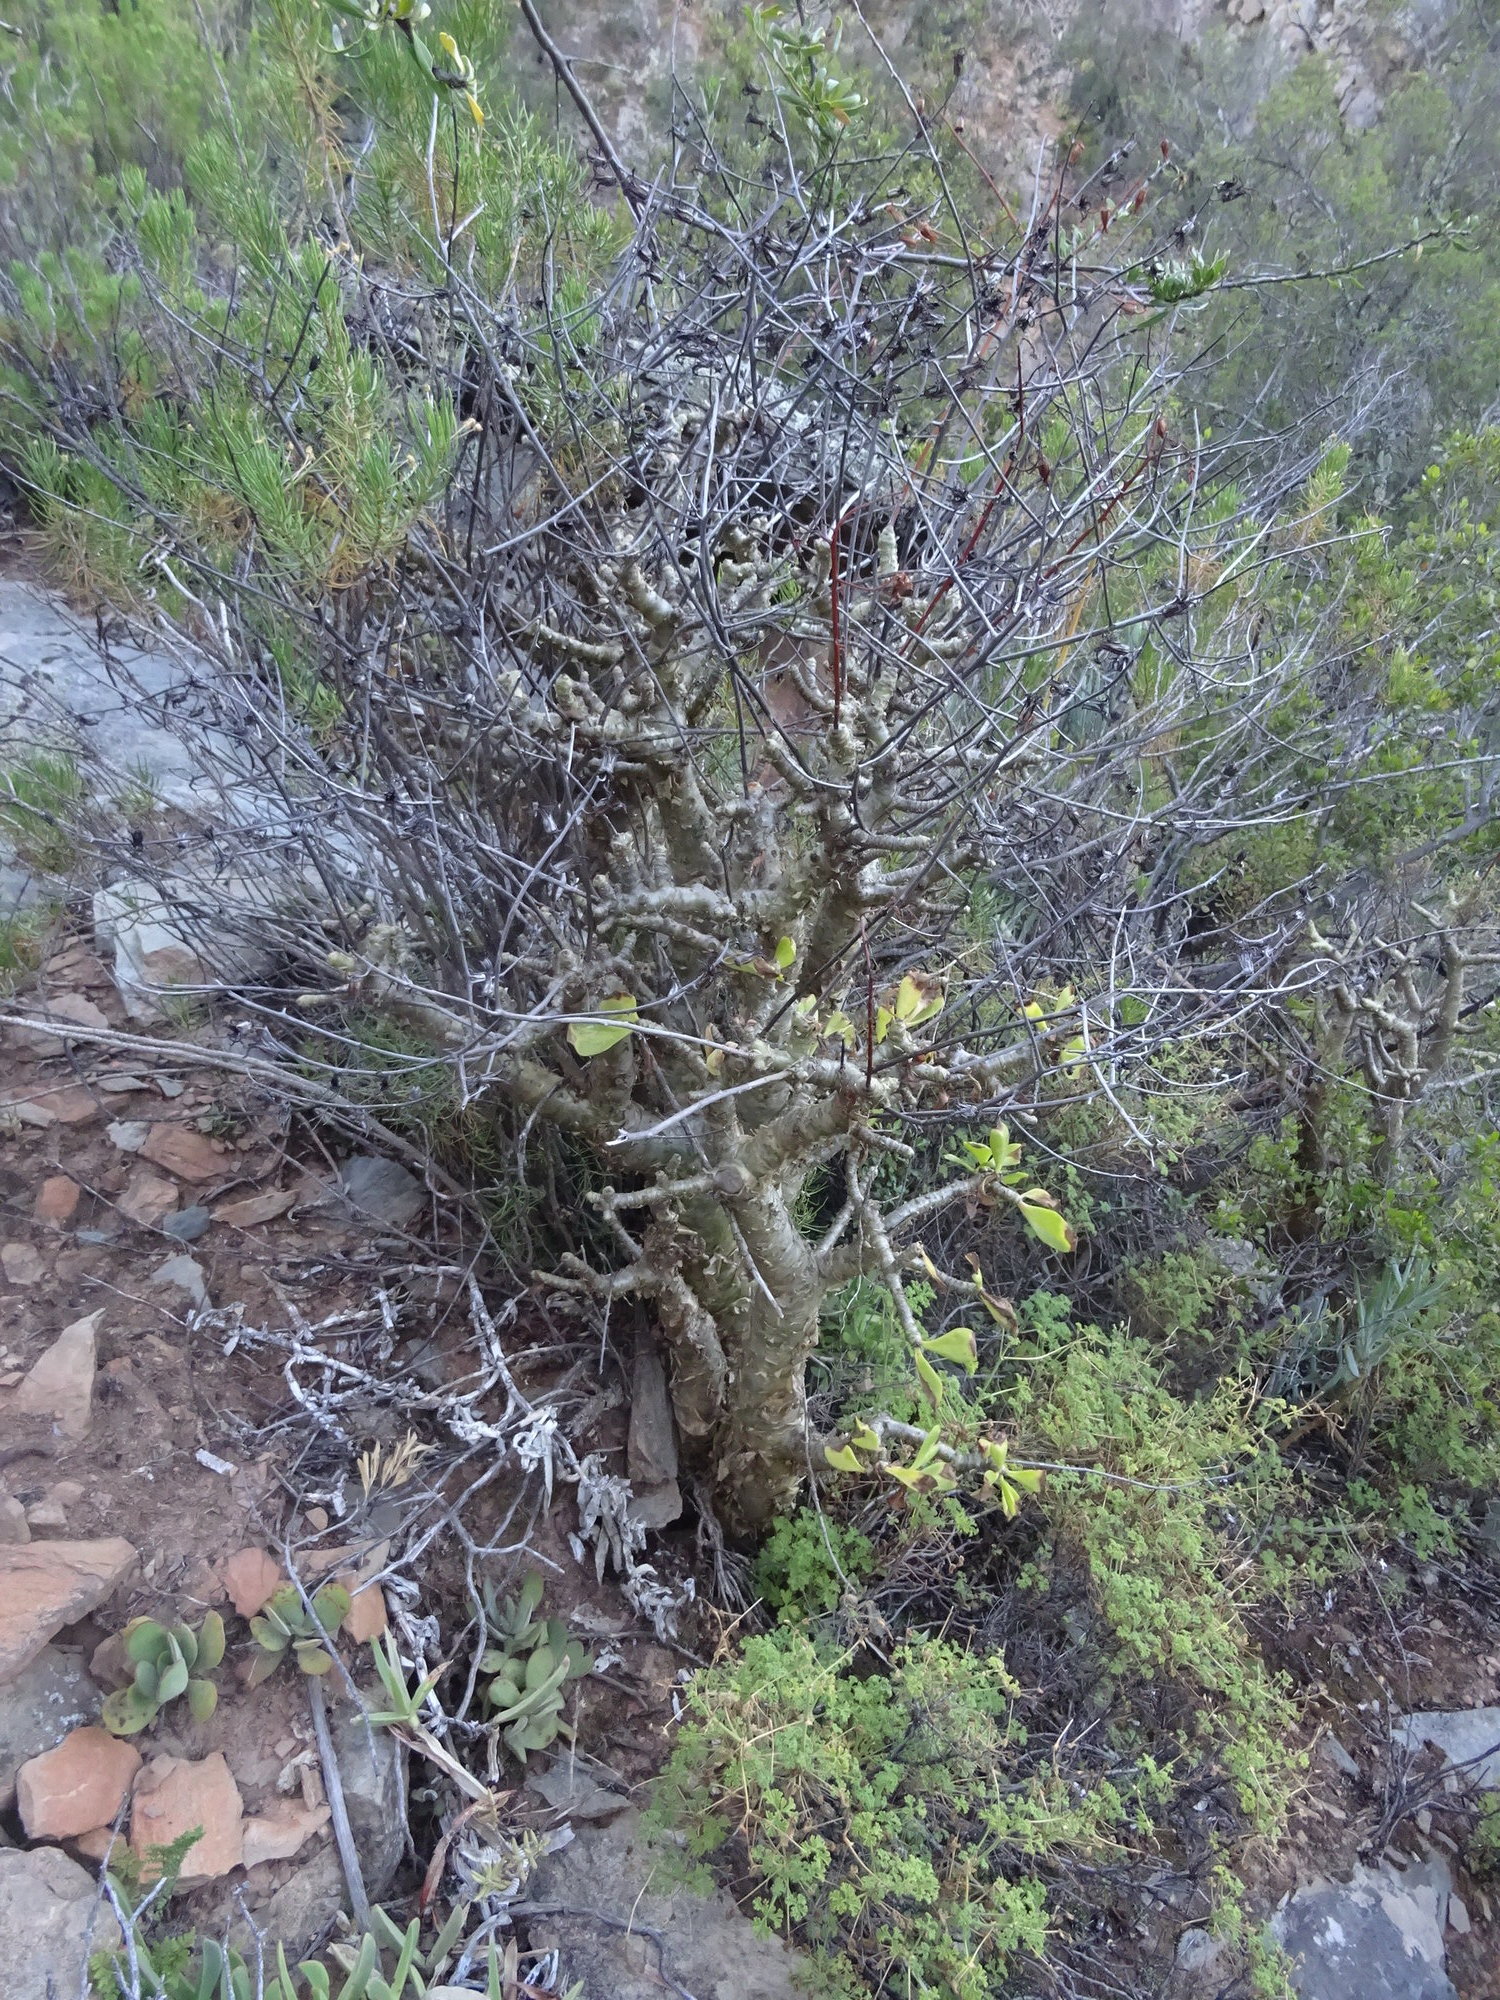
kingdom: Plantae
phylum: Tracheophyta
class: Magnoliopsida
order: Saxifragales
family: Crassulaceae
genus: Tylecodon
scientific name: Tylecodon paniculatus
